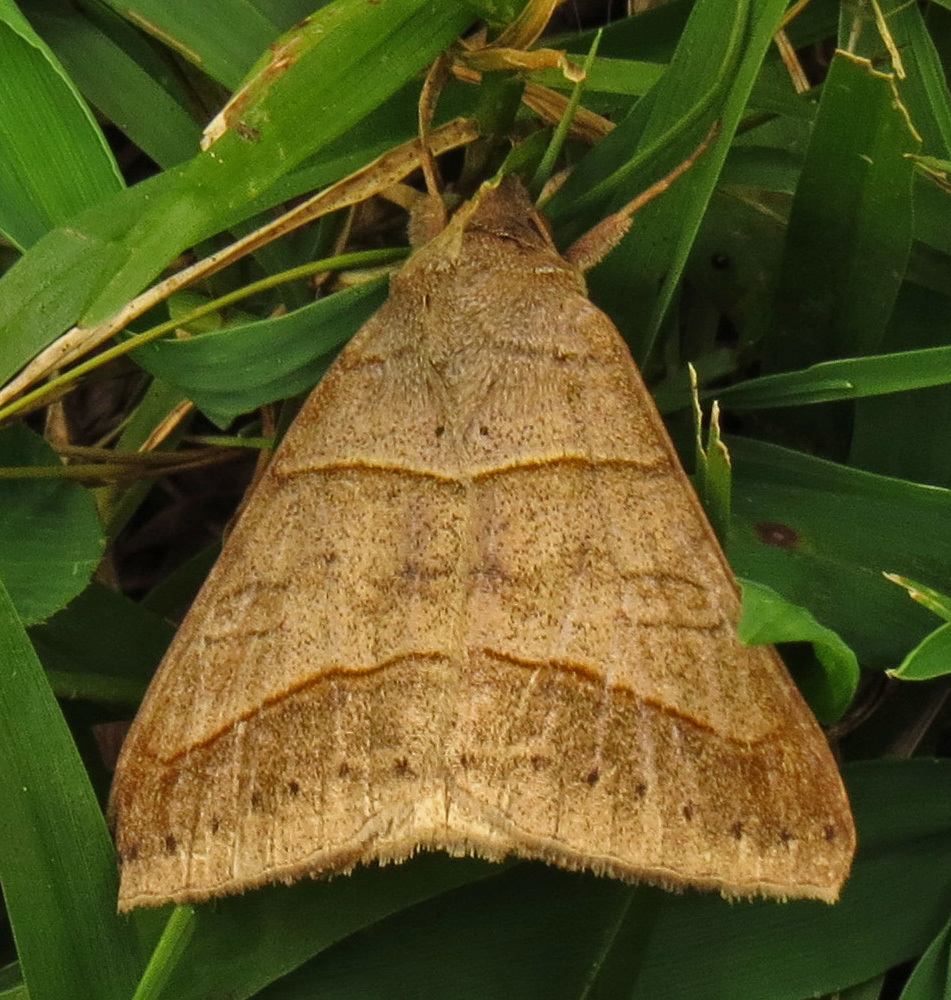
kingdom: Animalia
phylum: Arthropoda
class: Insecta
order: Lepidoptera
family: Erebidae
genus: Mocis
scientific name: Mocis texana
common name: Texas mocis moth
